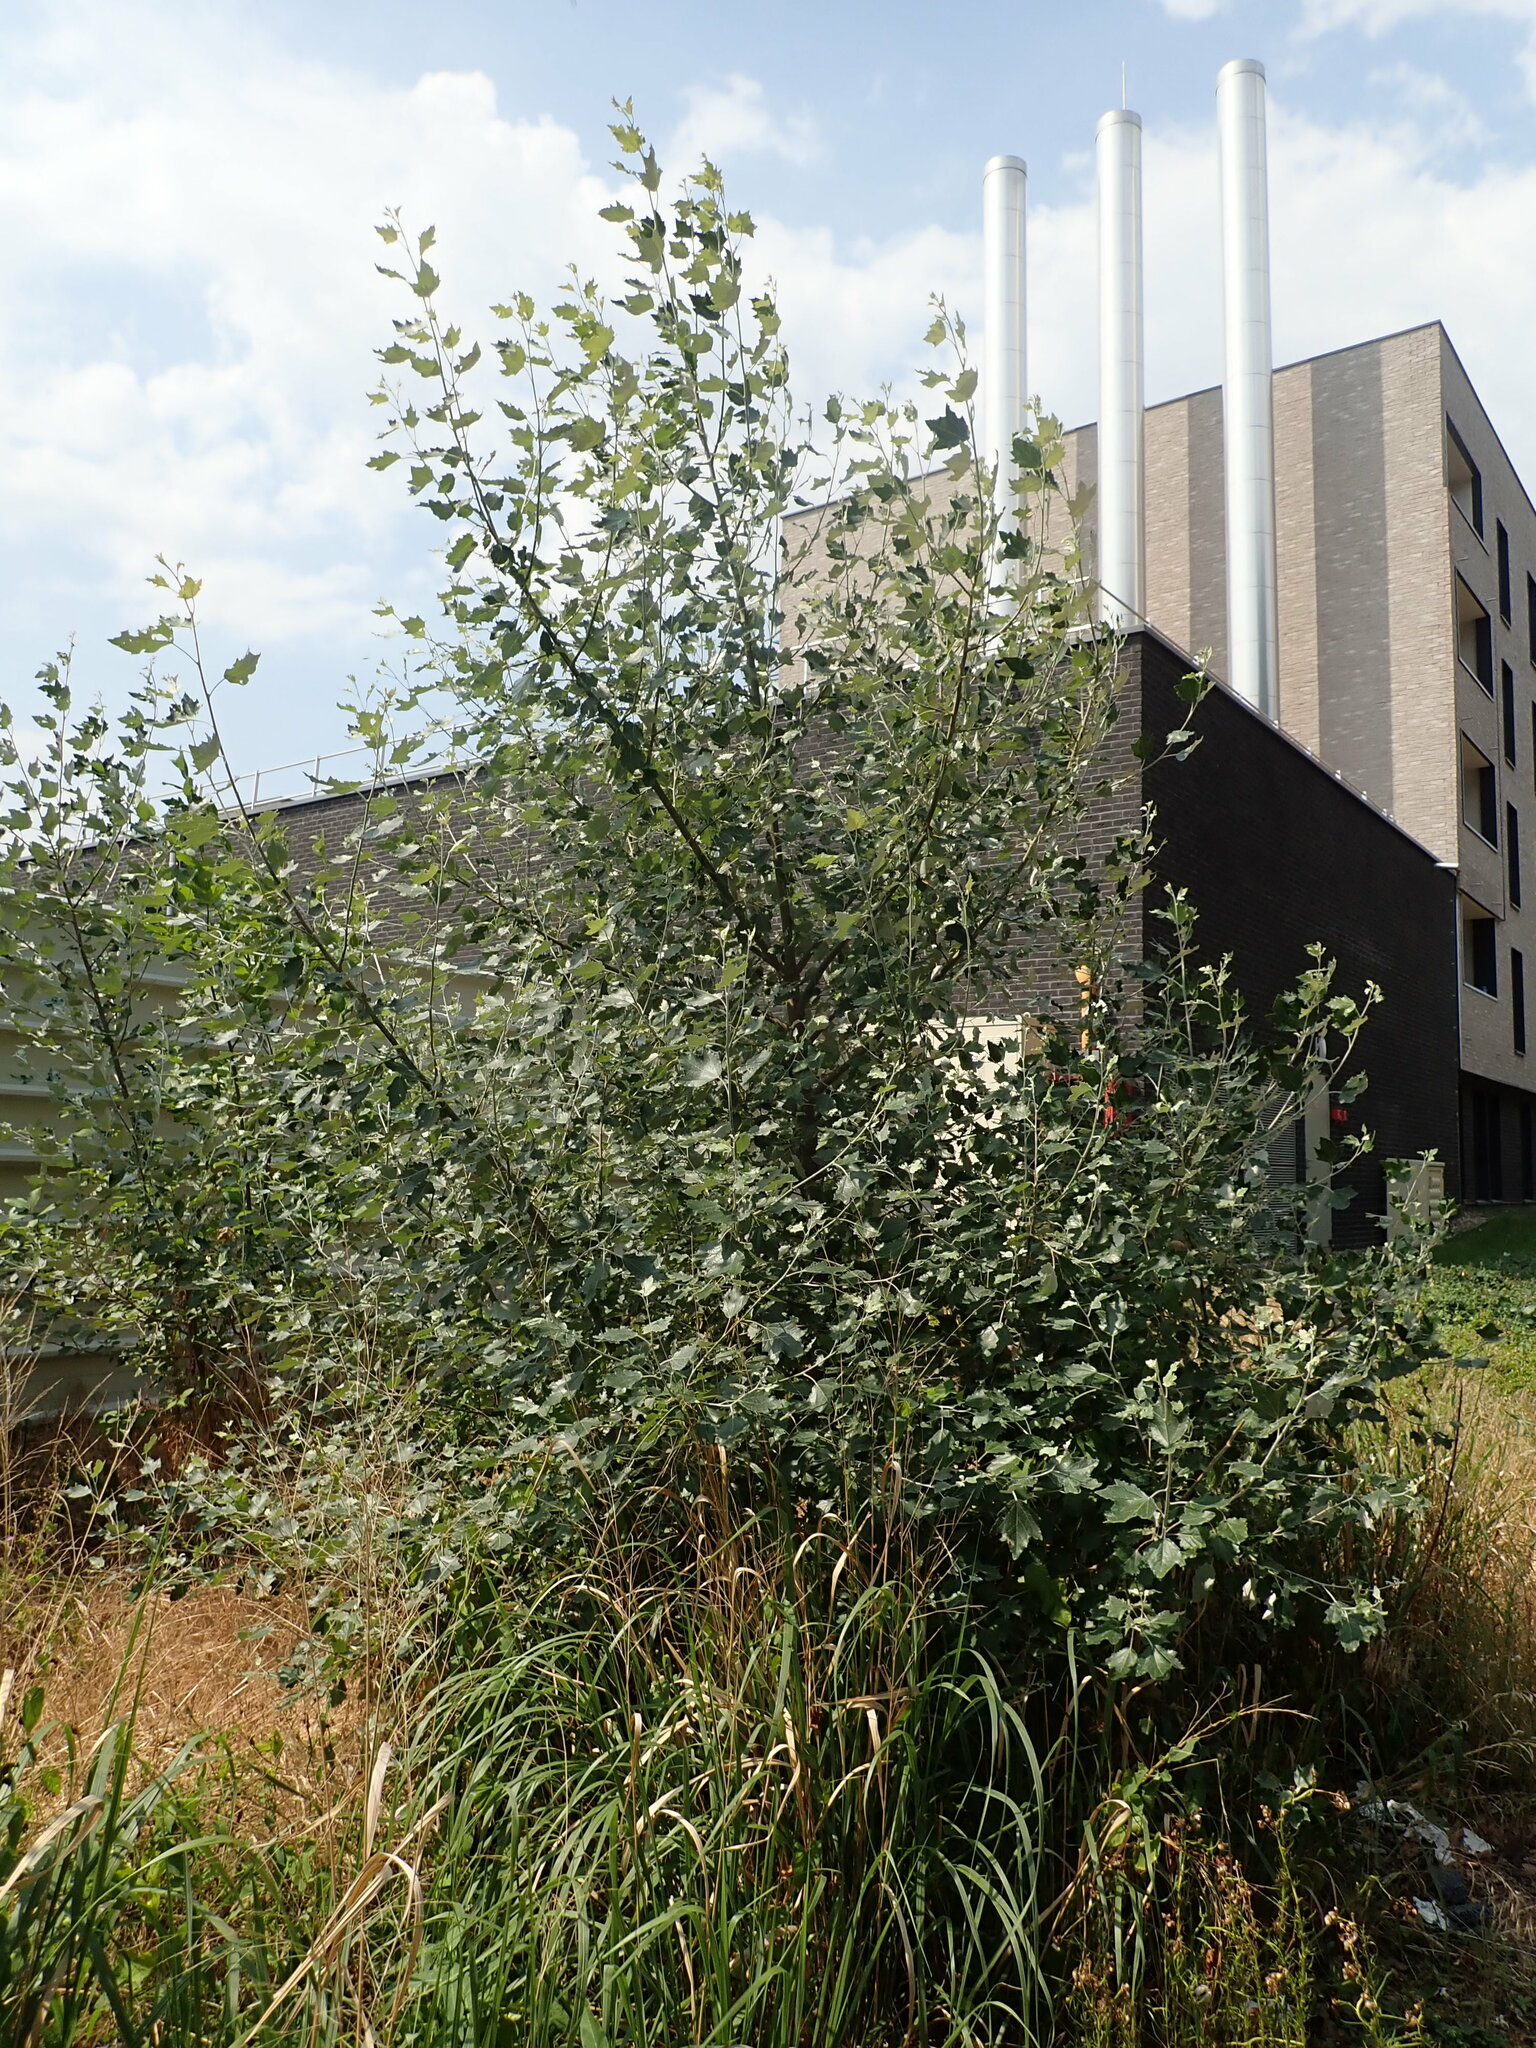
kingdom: Plantae
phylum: Tracheophyta
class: Magnoliopsida
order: Malpighiales
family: Salicaceae
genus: Populus
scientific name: Populus alba
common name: White poplar
